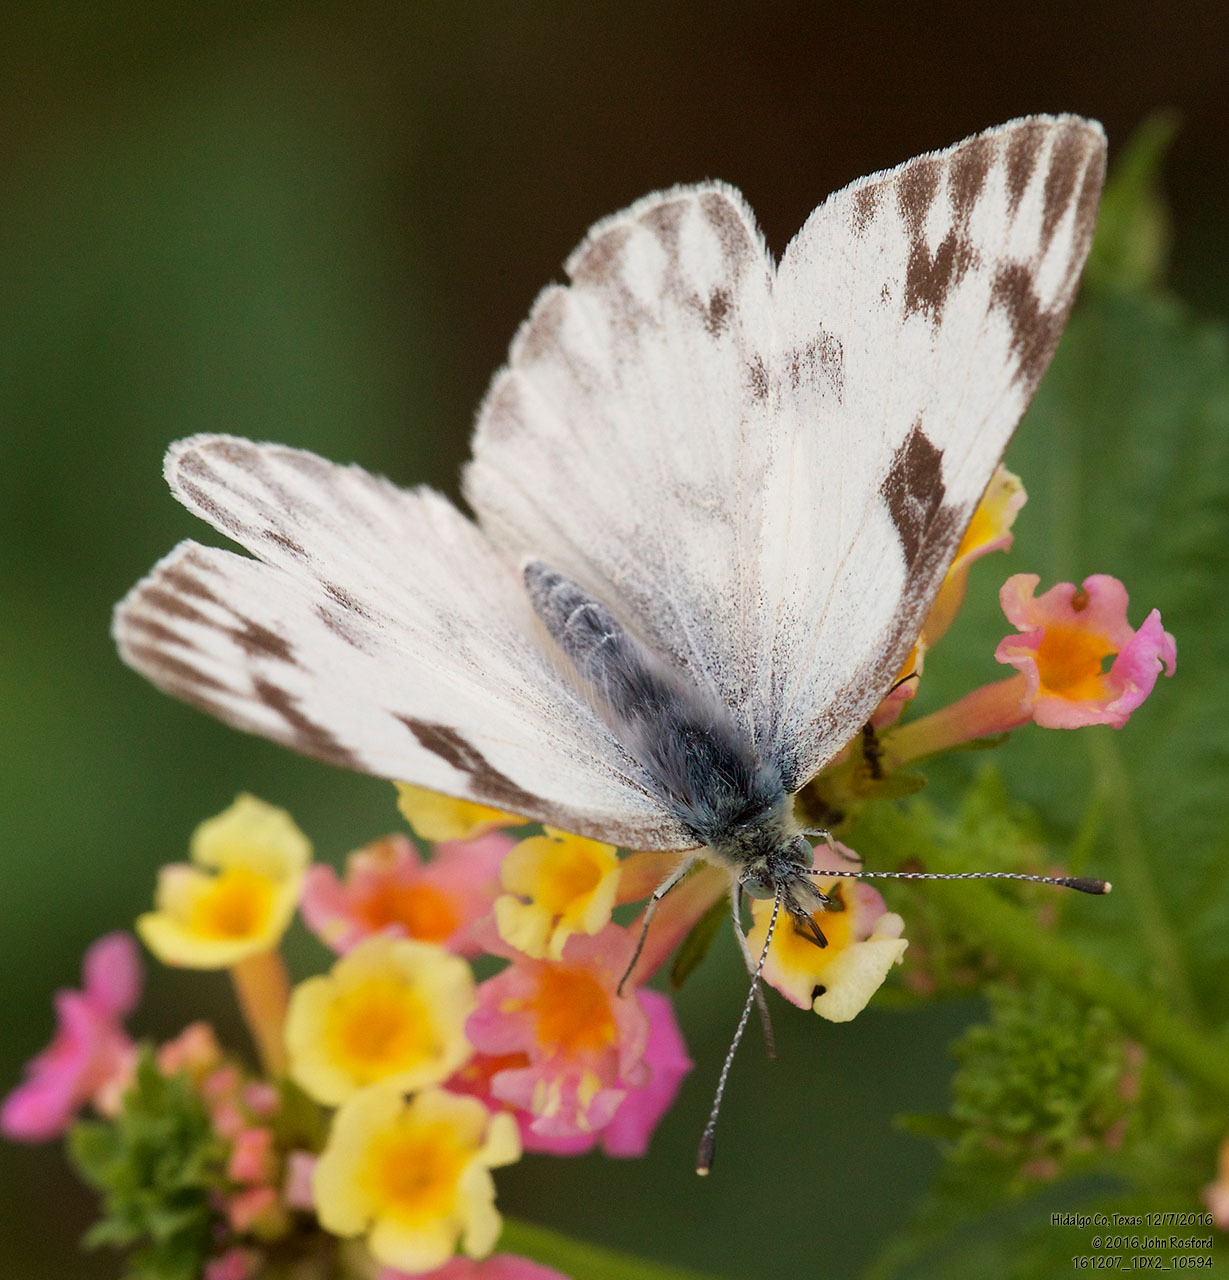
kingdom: Animalia
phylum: Arthropoda
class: Insecta
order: Lepidoptera
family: Pieridae
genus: Pontia
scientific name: Pontia protodice
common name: Checkered white
